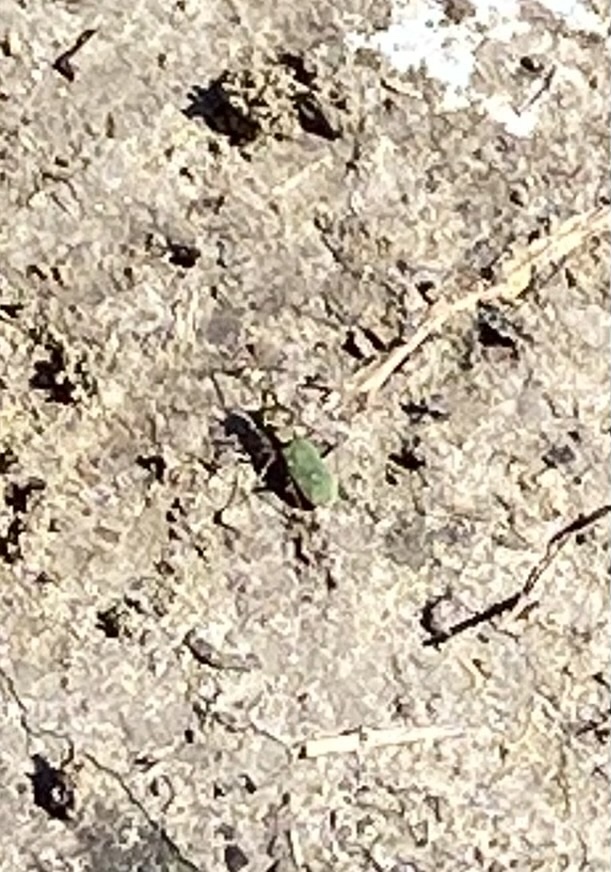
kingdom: Animalia
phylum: Arthropoda
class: Insecta
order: Coleoptera
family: Carabidae
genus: Cicindela
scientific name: Cicindela campestris
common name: Common tiger beetle
